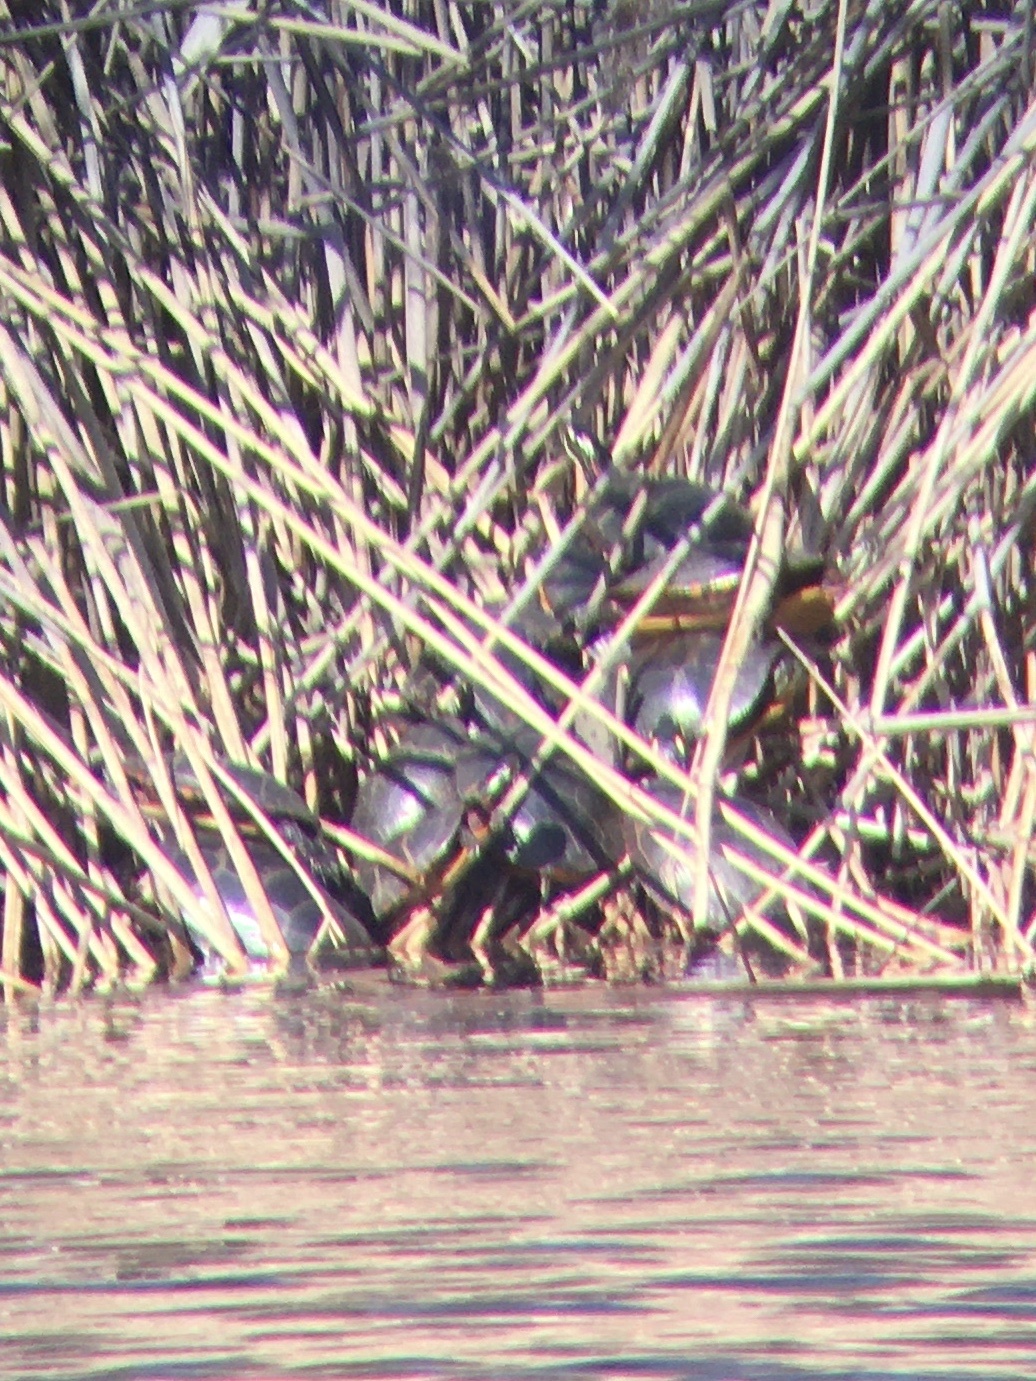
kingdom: Animalia
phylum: Chordata
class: Testudines
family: Emydidae
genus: Chrysemys
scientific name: Chrysemys picta
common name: Painted turtle
